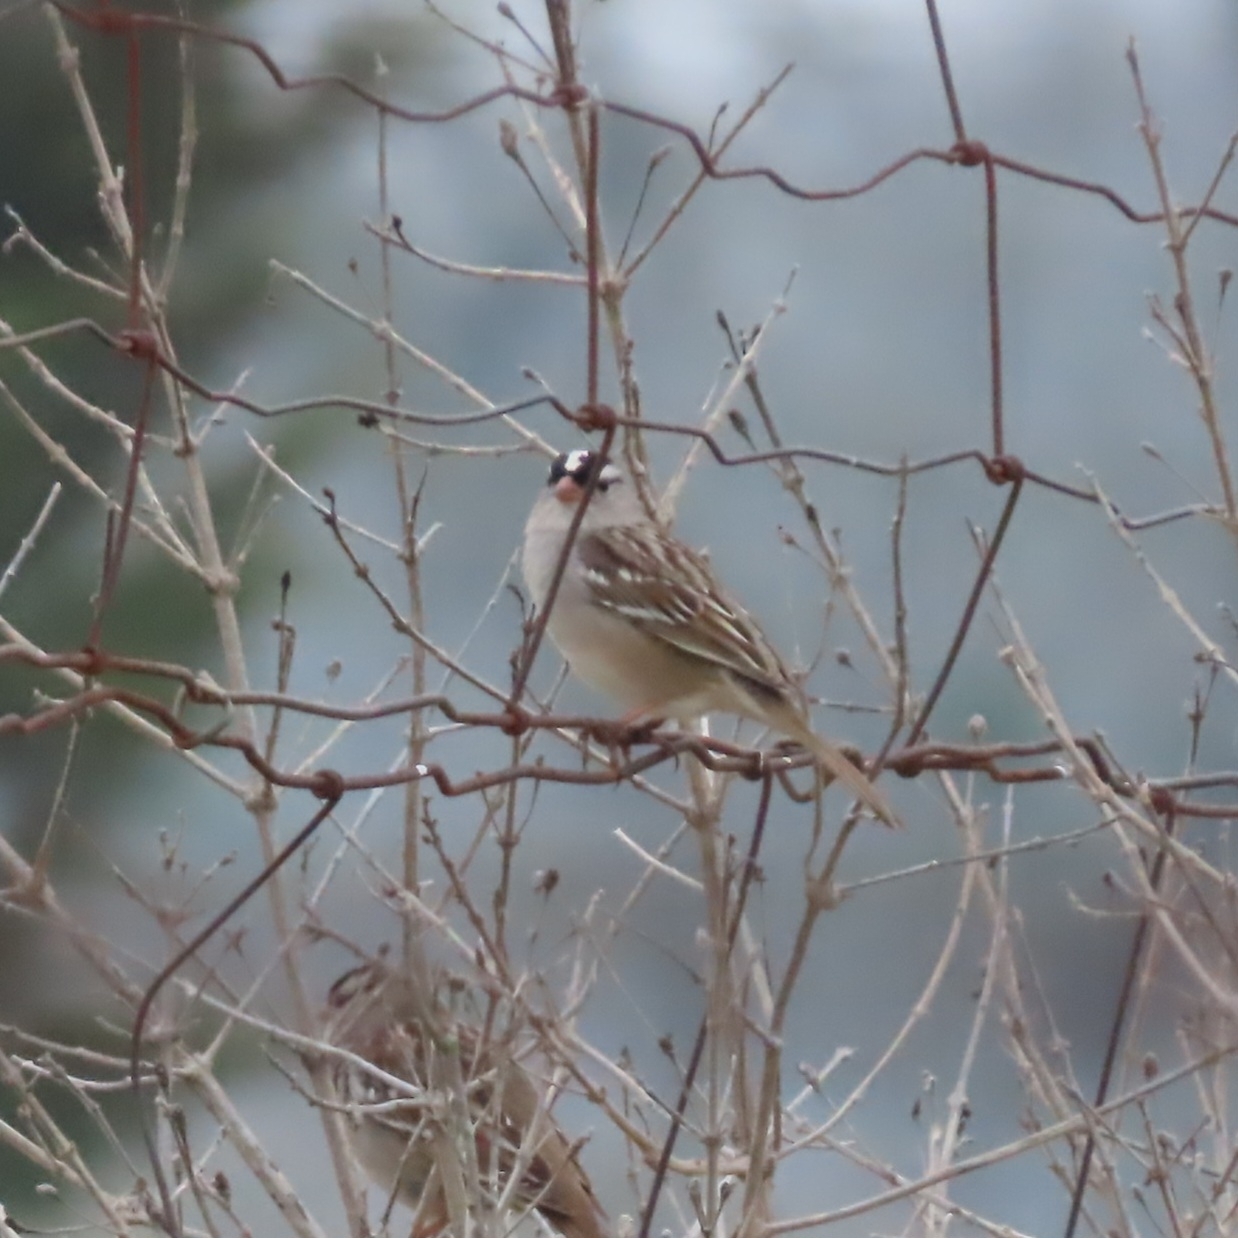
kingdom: Animalia
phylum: Chordata
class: Aves
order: Passeriformes
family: Passerellidae
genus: Zonotrichia
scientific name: Zonotrichia leucophrys
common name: White-crowned sparrow
